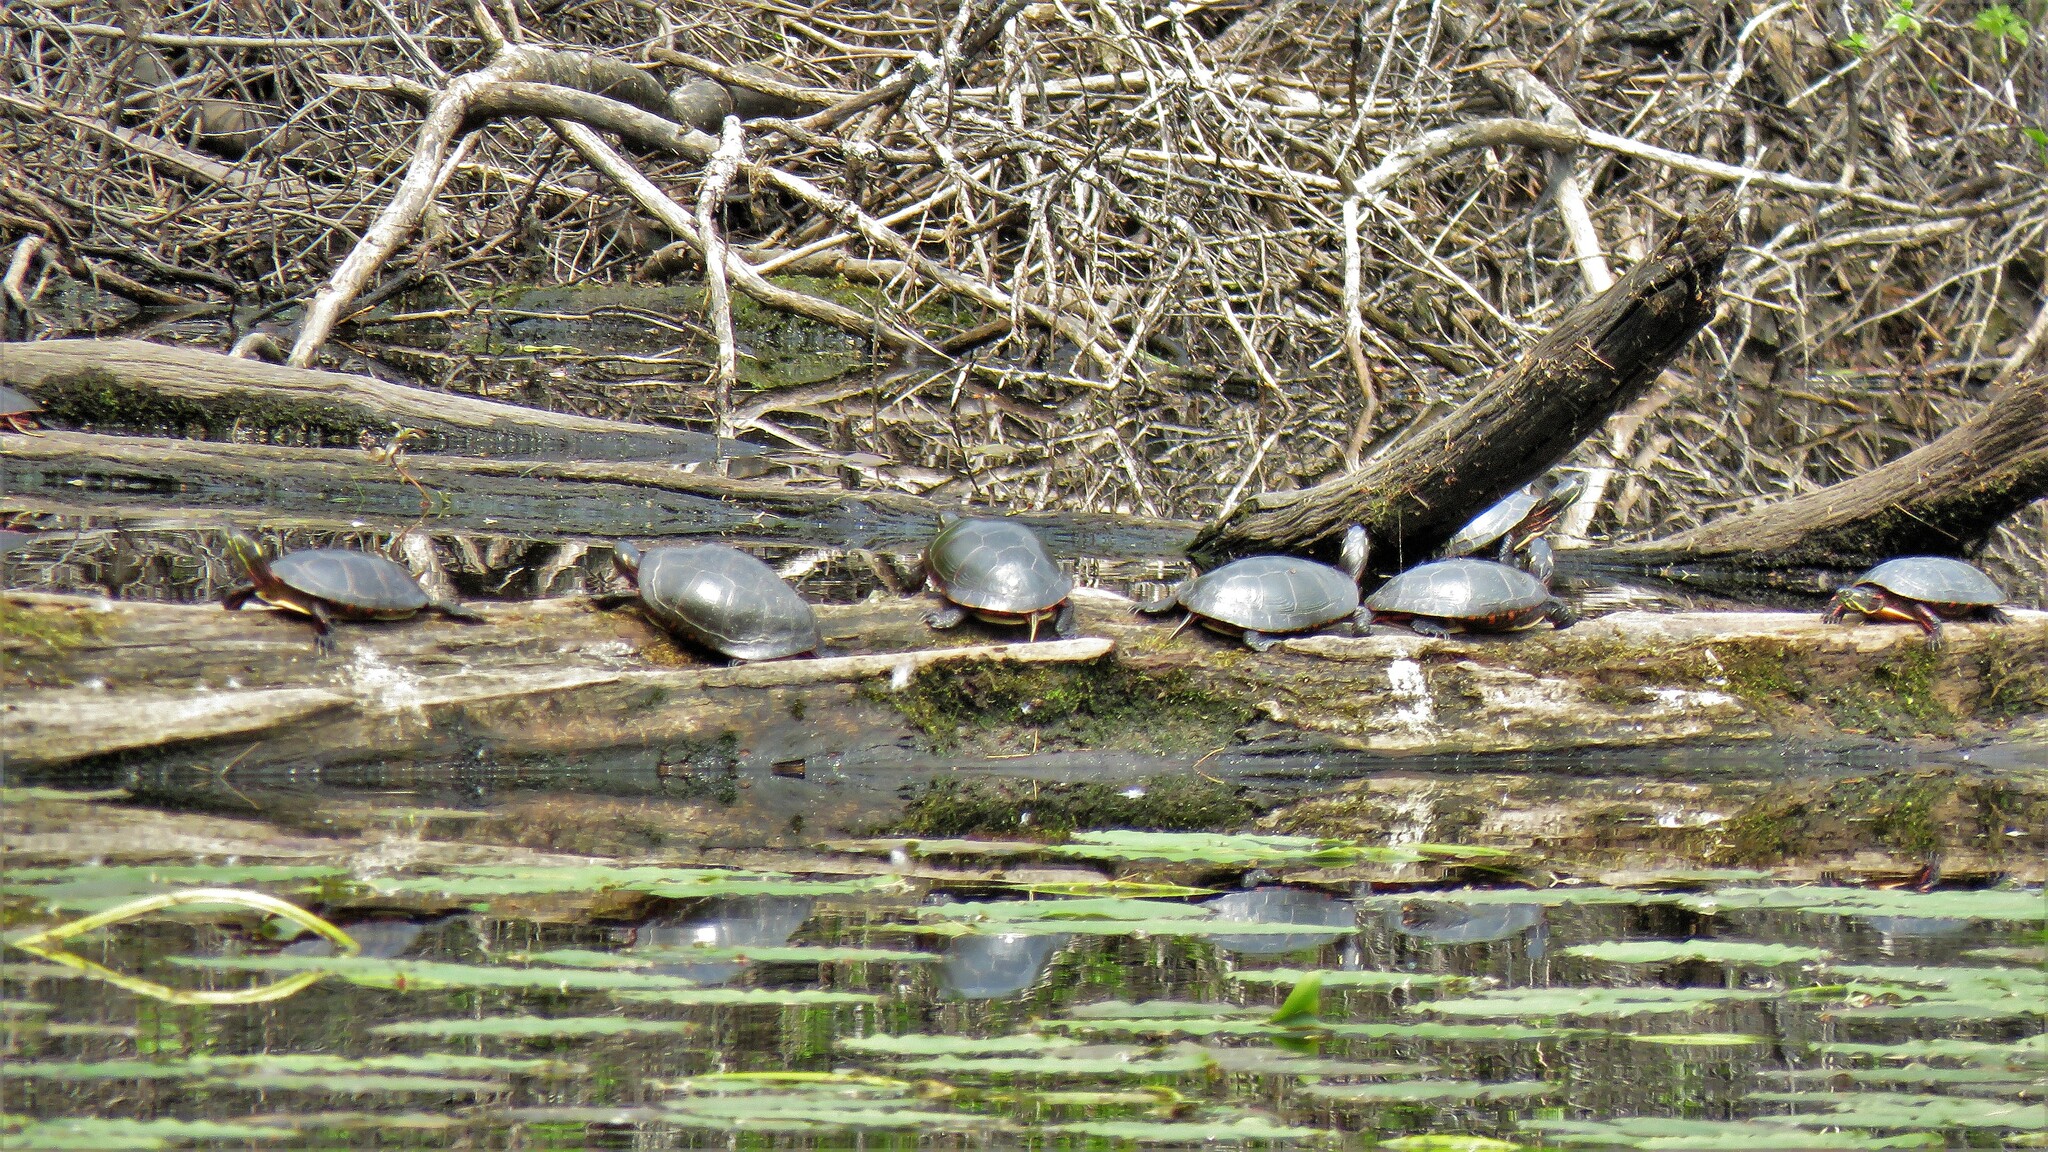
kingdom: Animalia
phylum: Chordata
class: Testudines
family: Emydidae
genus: Chrysemys
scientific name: Chrysemys picta
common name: Painted turtle
